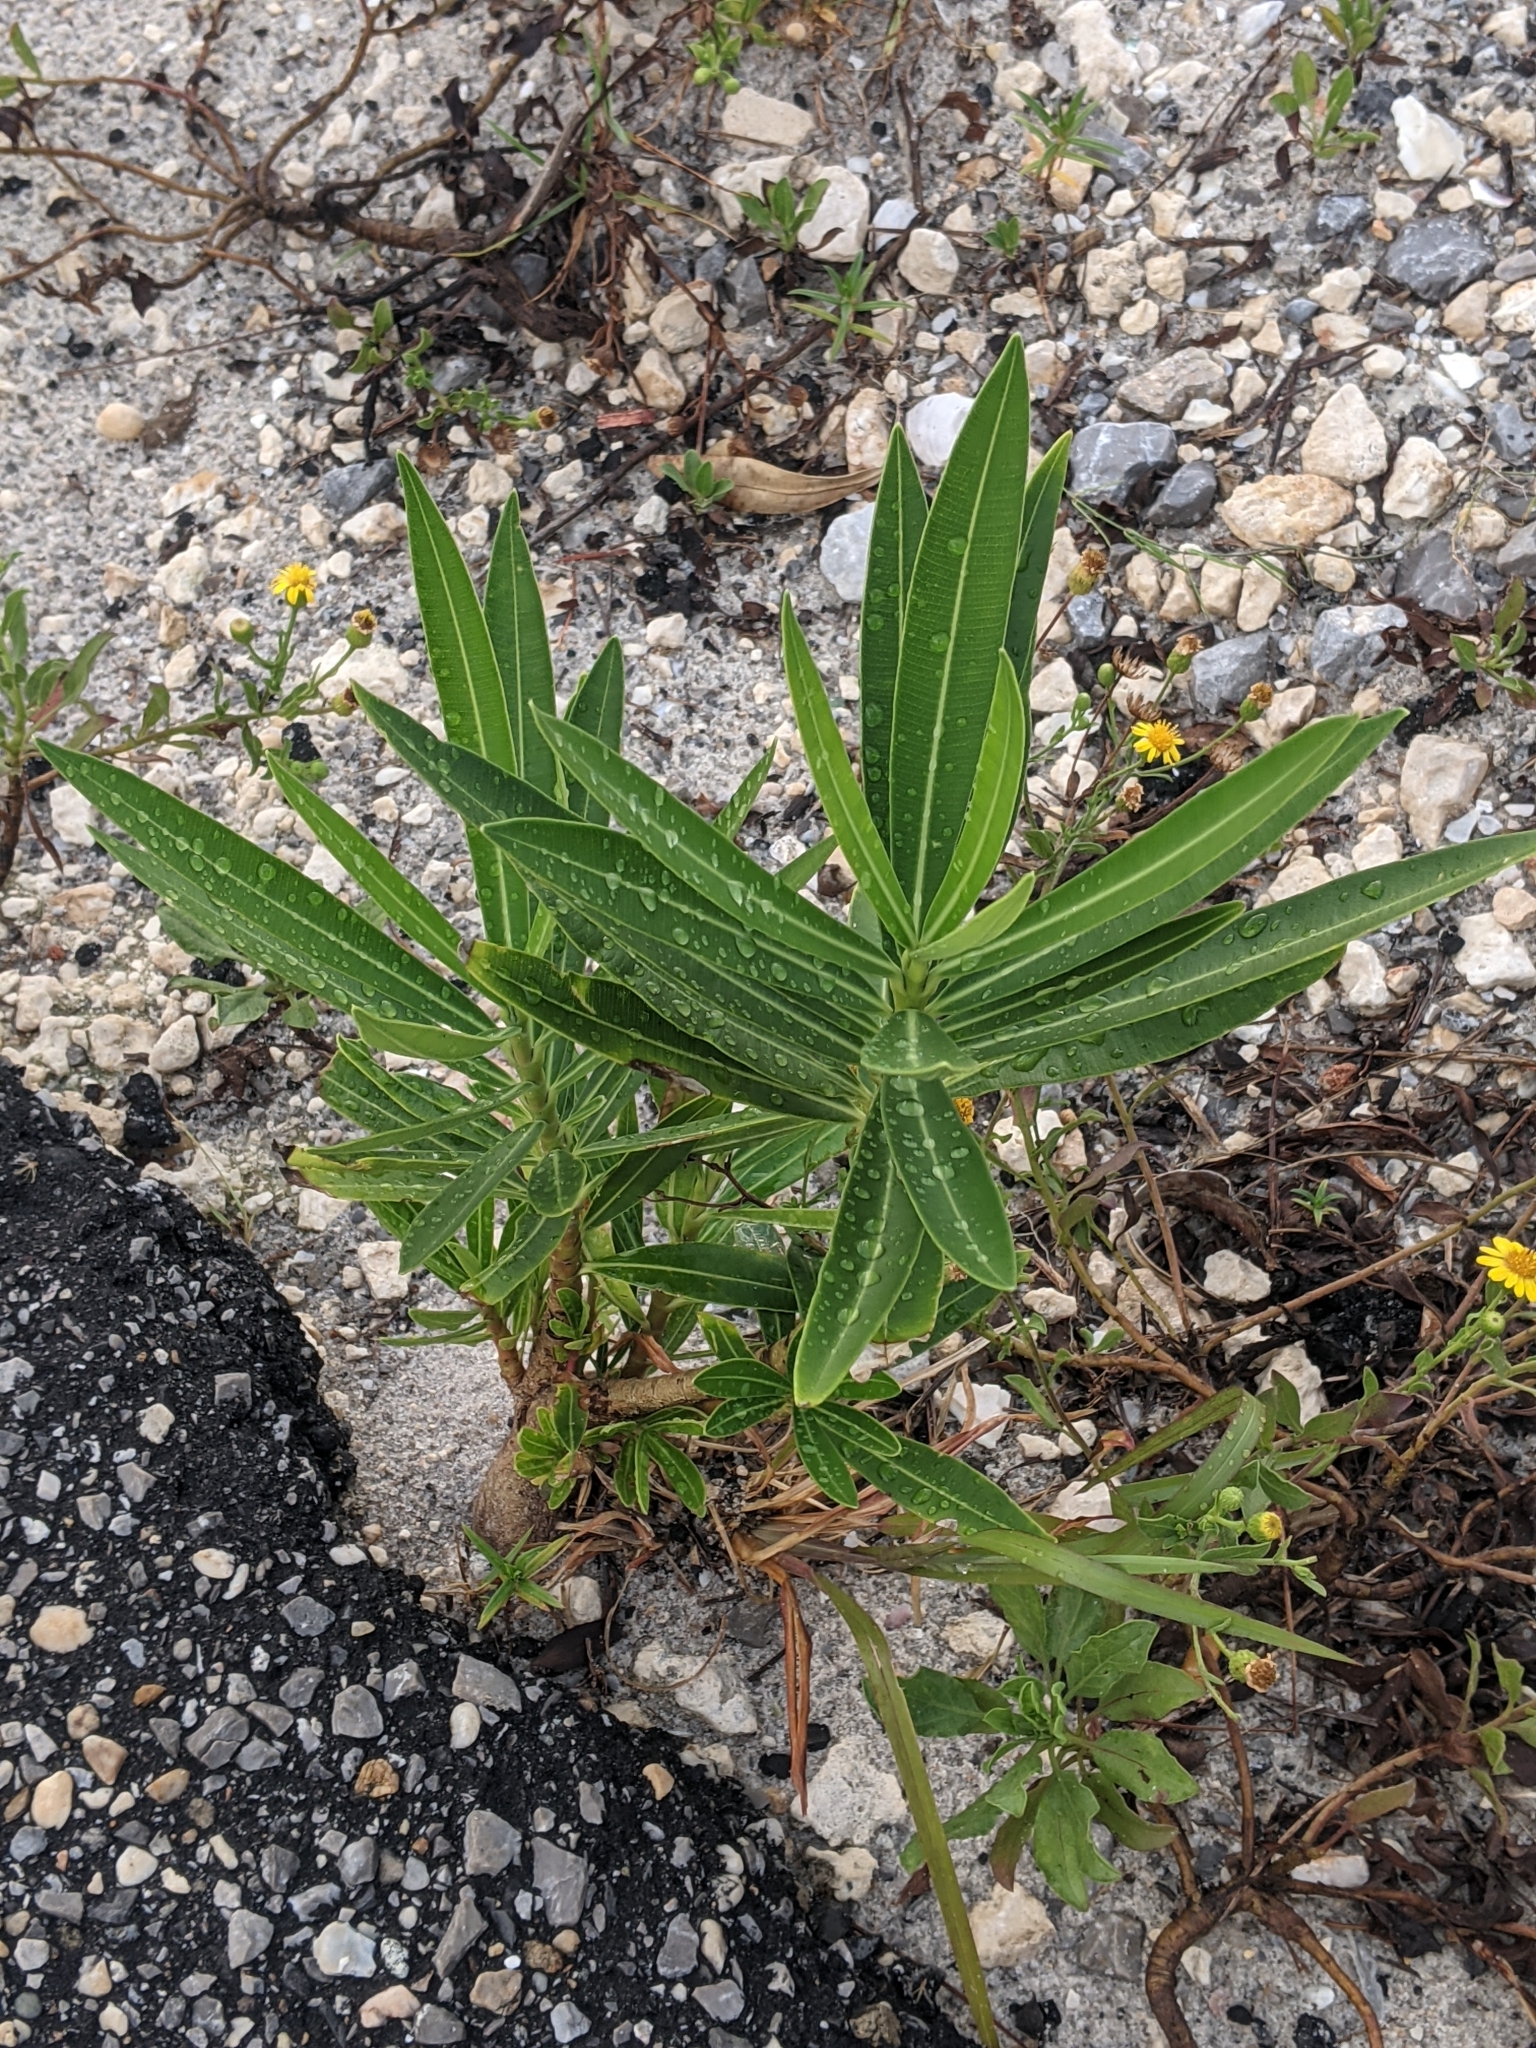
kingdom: Plantae
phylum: Tracheophyta
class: Magnoliopsida
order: Gentianales
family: Apocynaceae
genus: Nerium
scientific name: Nerium oleander
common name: Oleander
